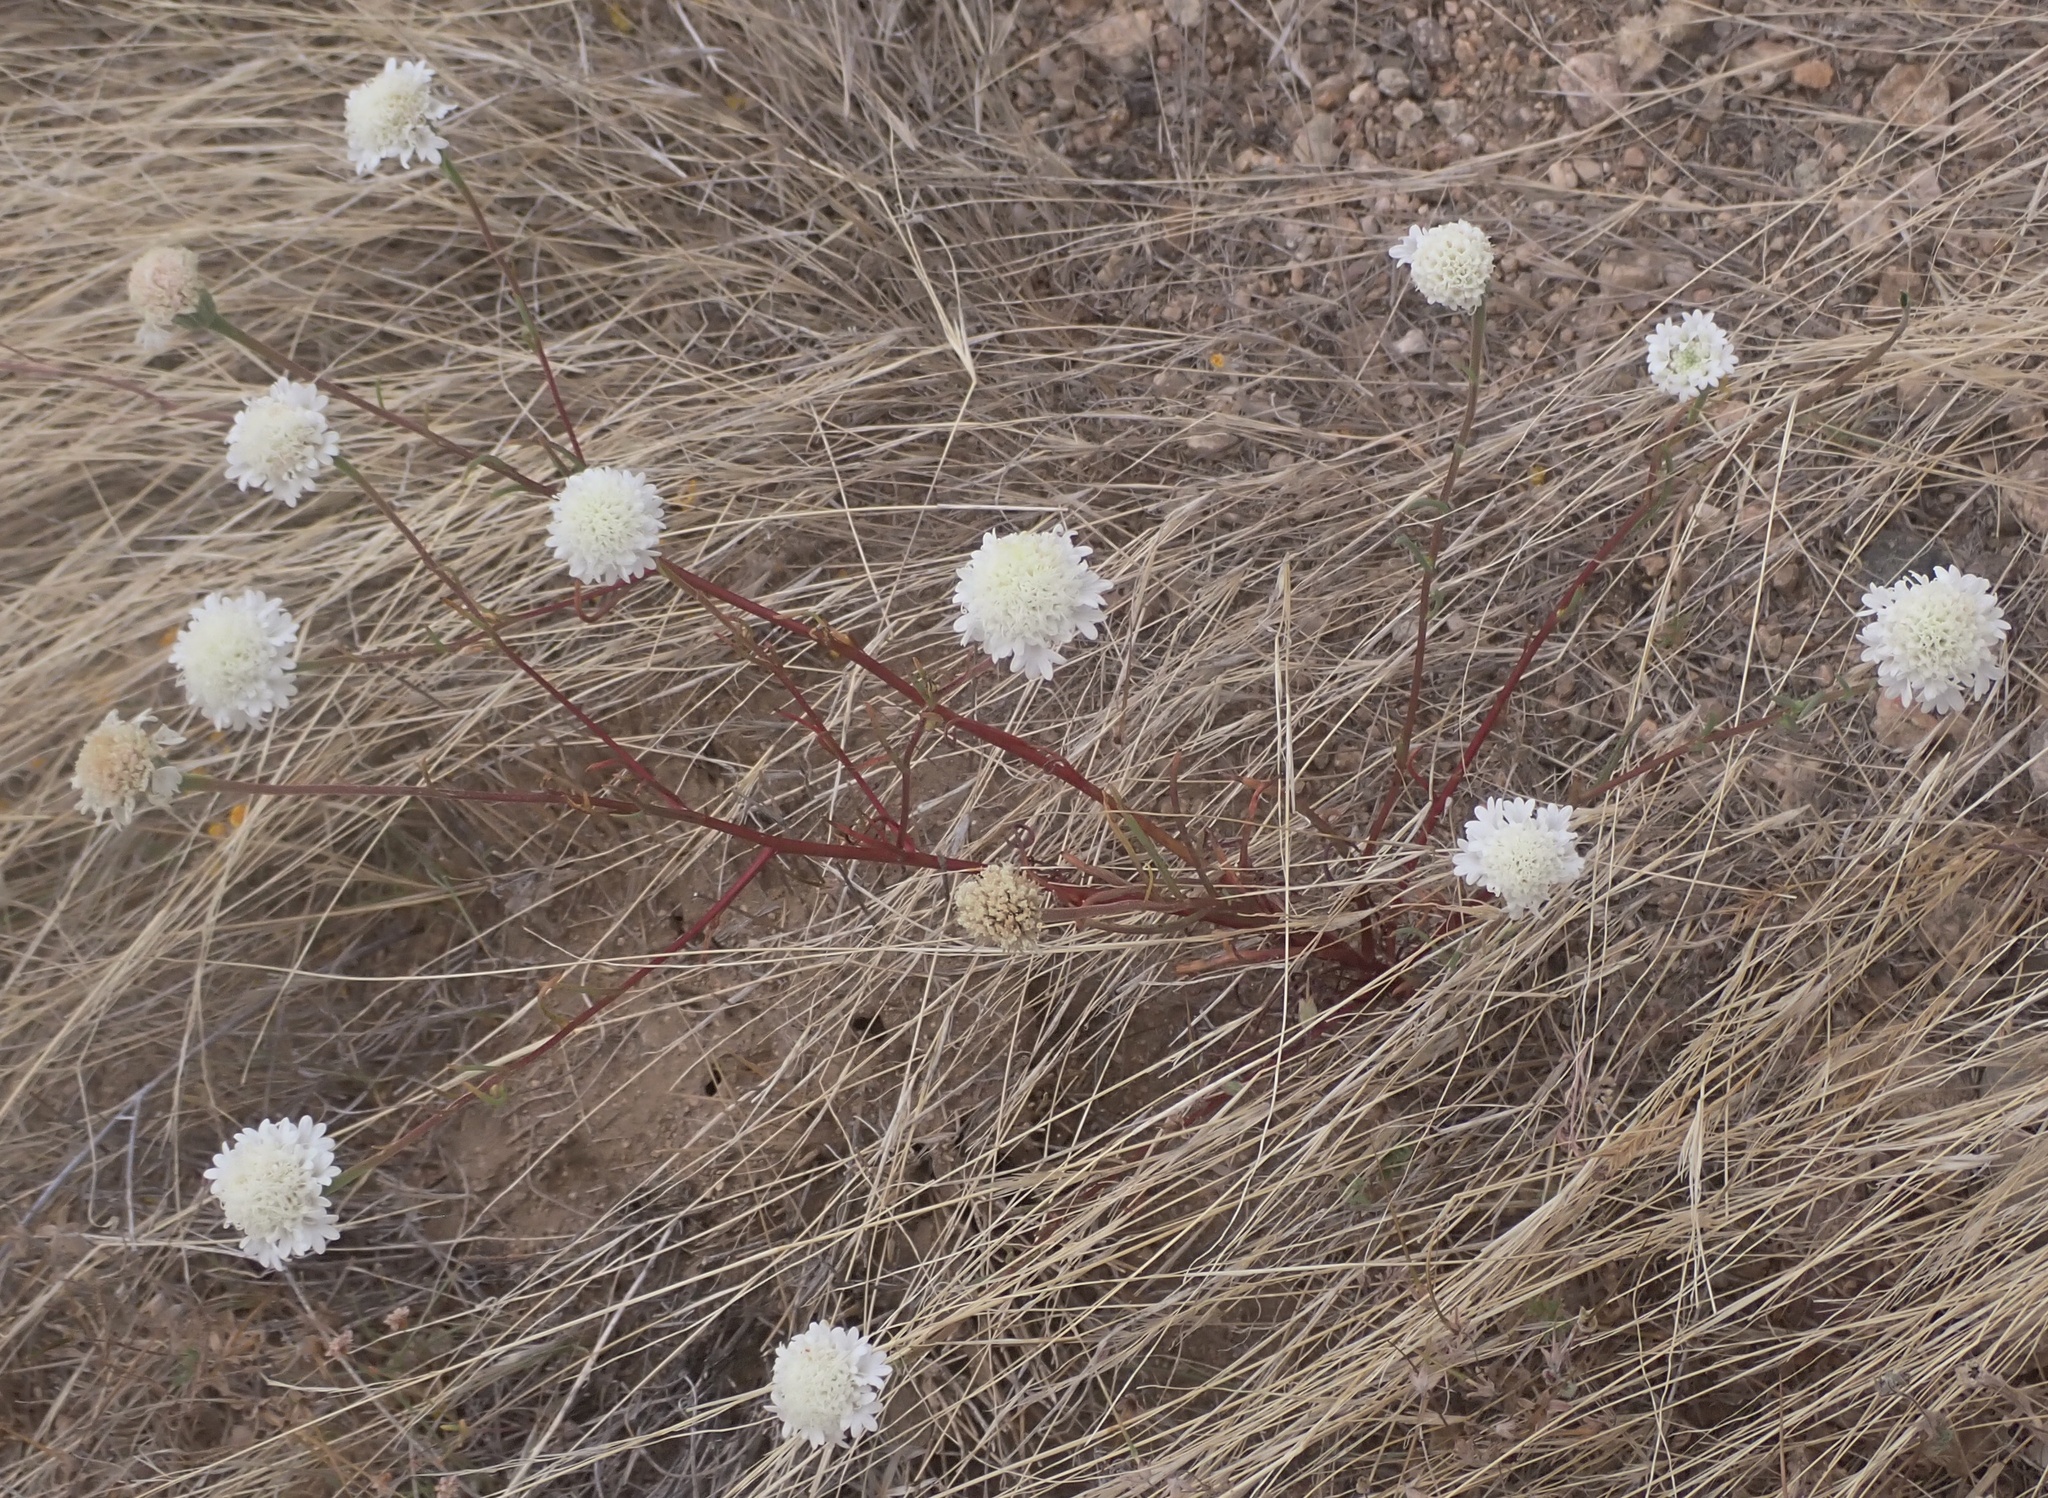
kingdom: Plantae
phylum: Tracheophyta
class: Magnoliopsida
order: Asterales
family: Asteraceae
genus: Chaenactis
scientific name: Chaenactis fremontii
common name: Fremont pincushion
